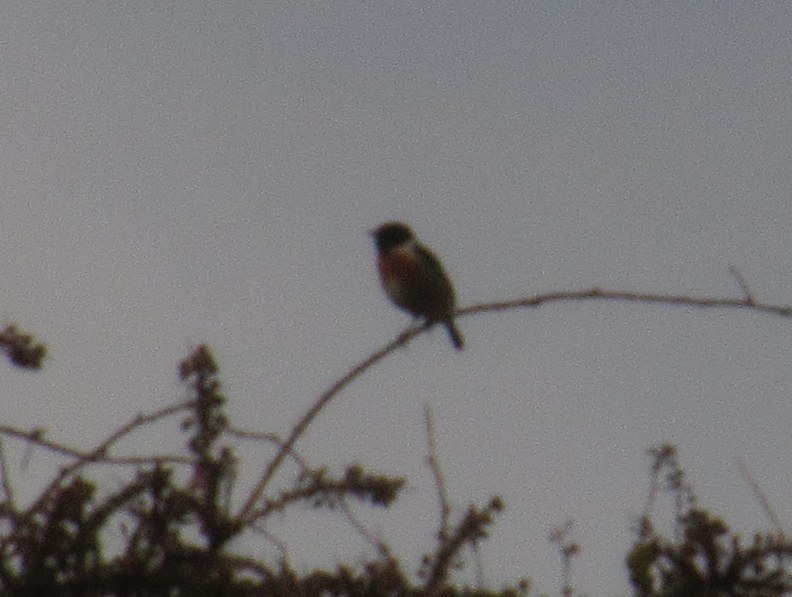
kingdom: Animalia
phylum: Chordata
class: Aves
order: Passeriformes
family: Muscicapidae
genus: Saxicola
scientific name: Saxicola rubicola
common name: European stonechat
